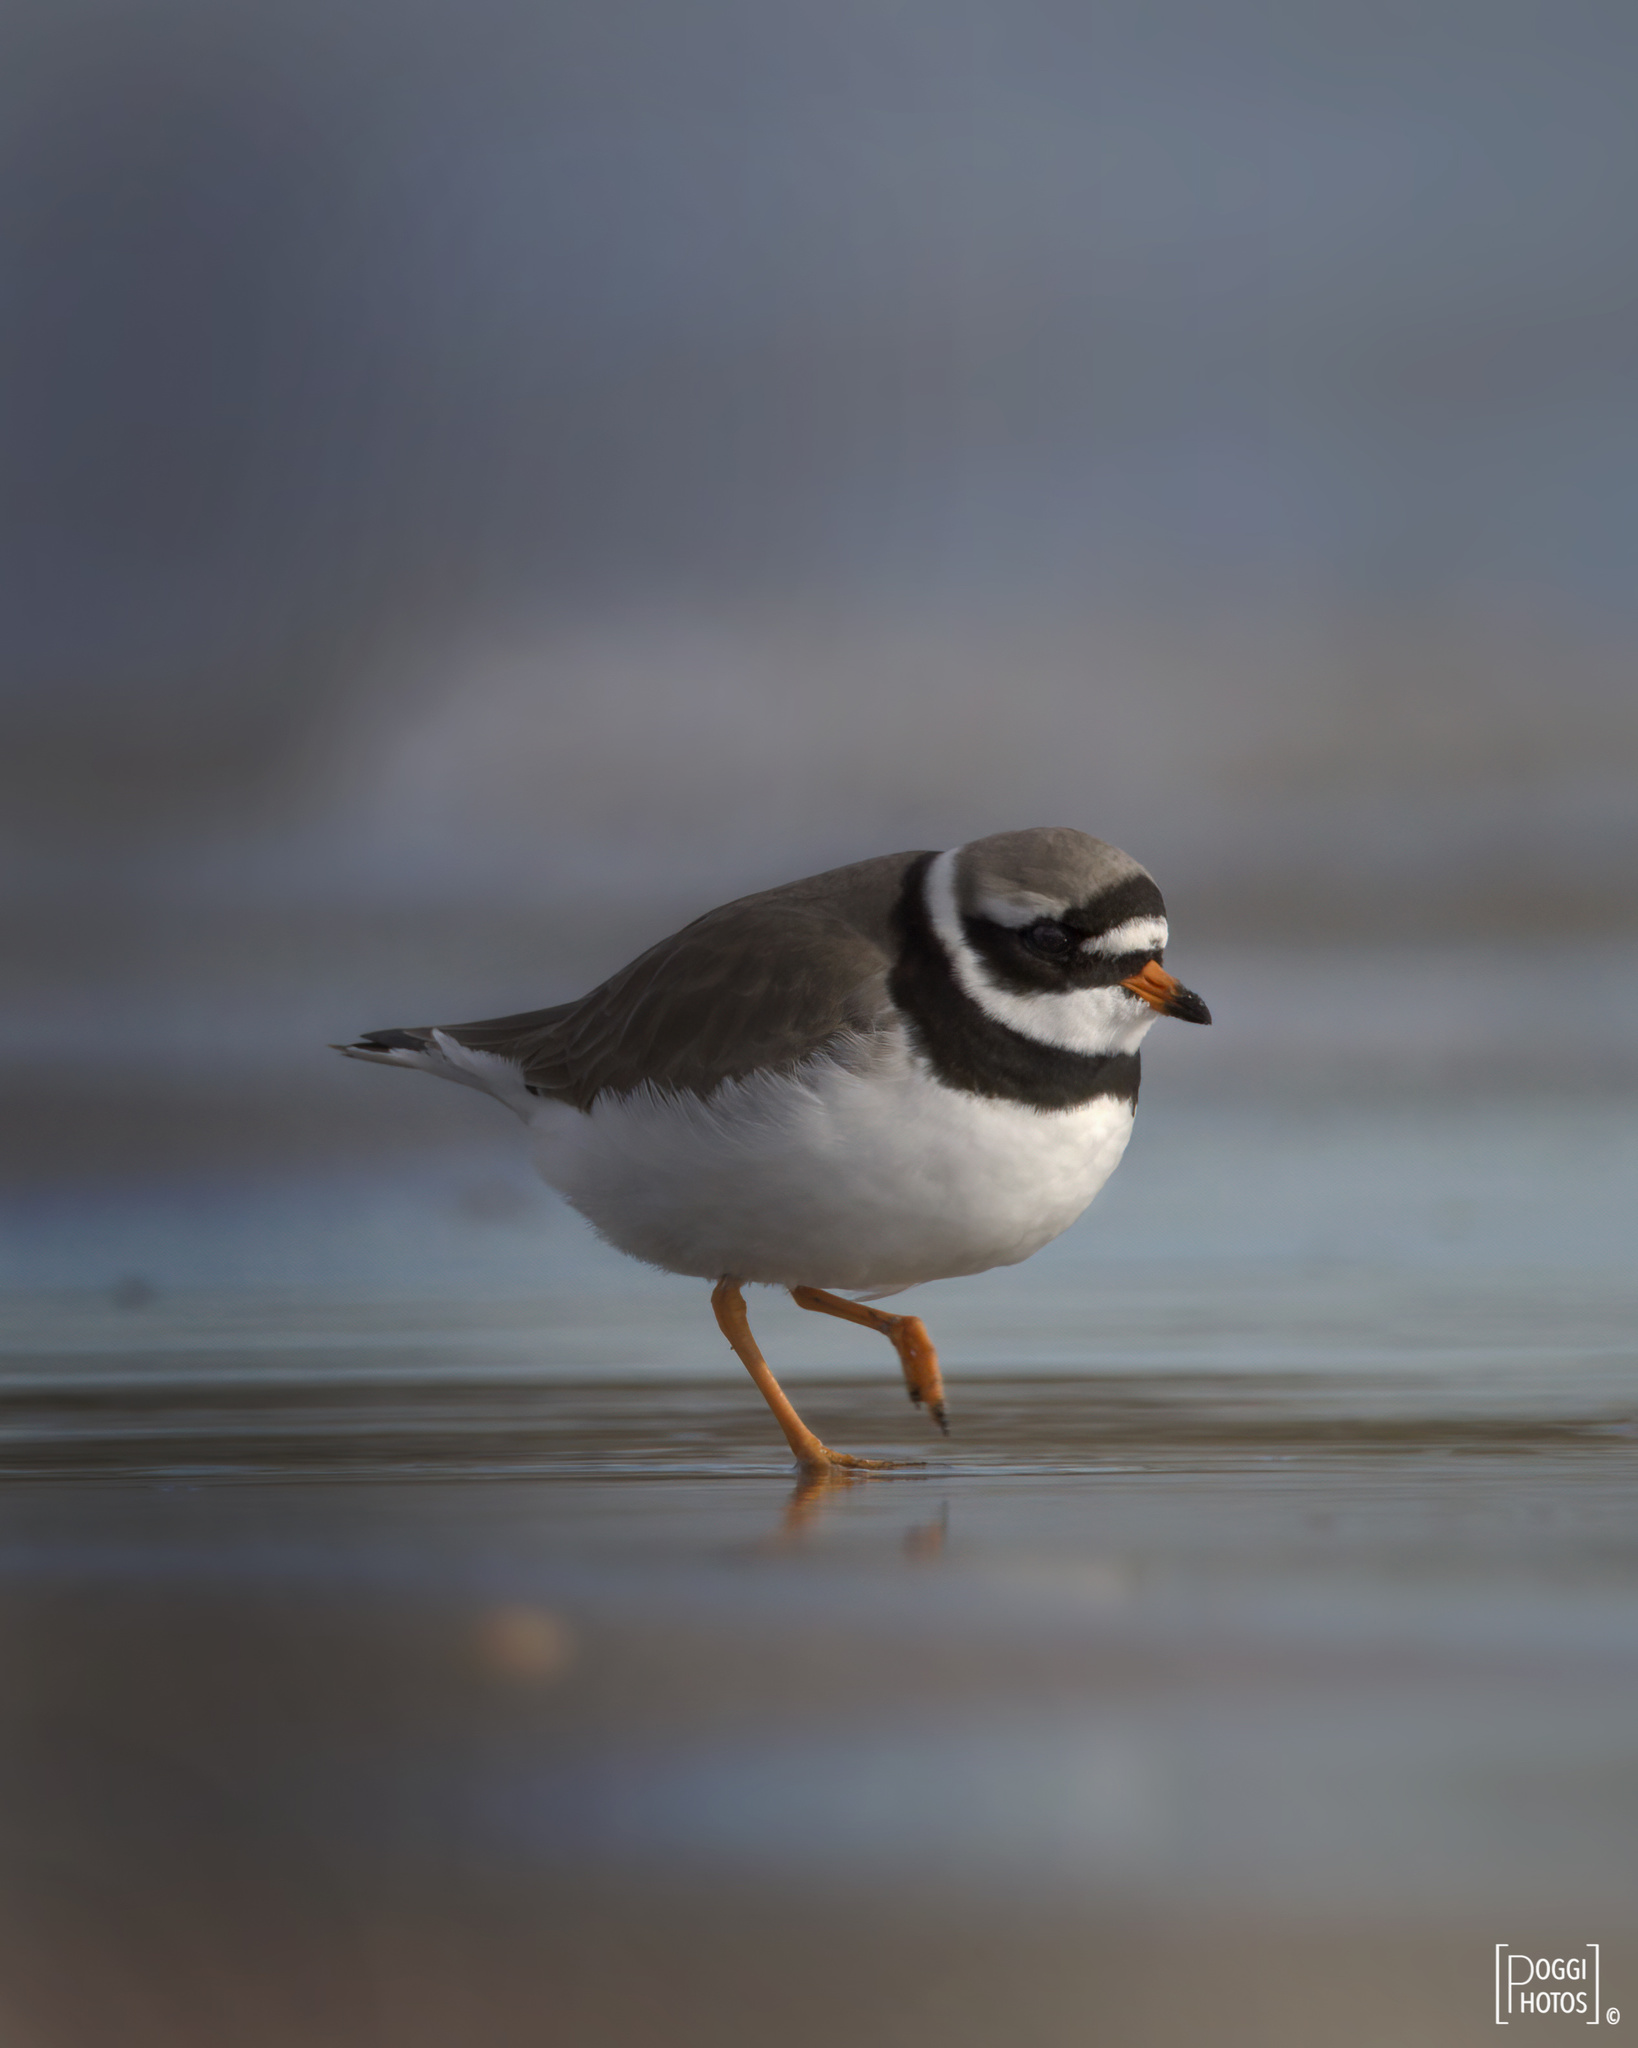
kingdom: Animalia
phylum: Chordata
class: Aves
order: Charadriiformes
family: Charadriidae
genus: Charadrius
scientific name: Charadrius hiaticula
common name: Common ringed plover
